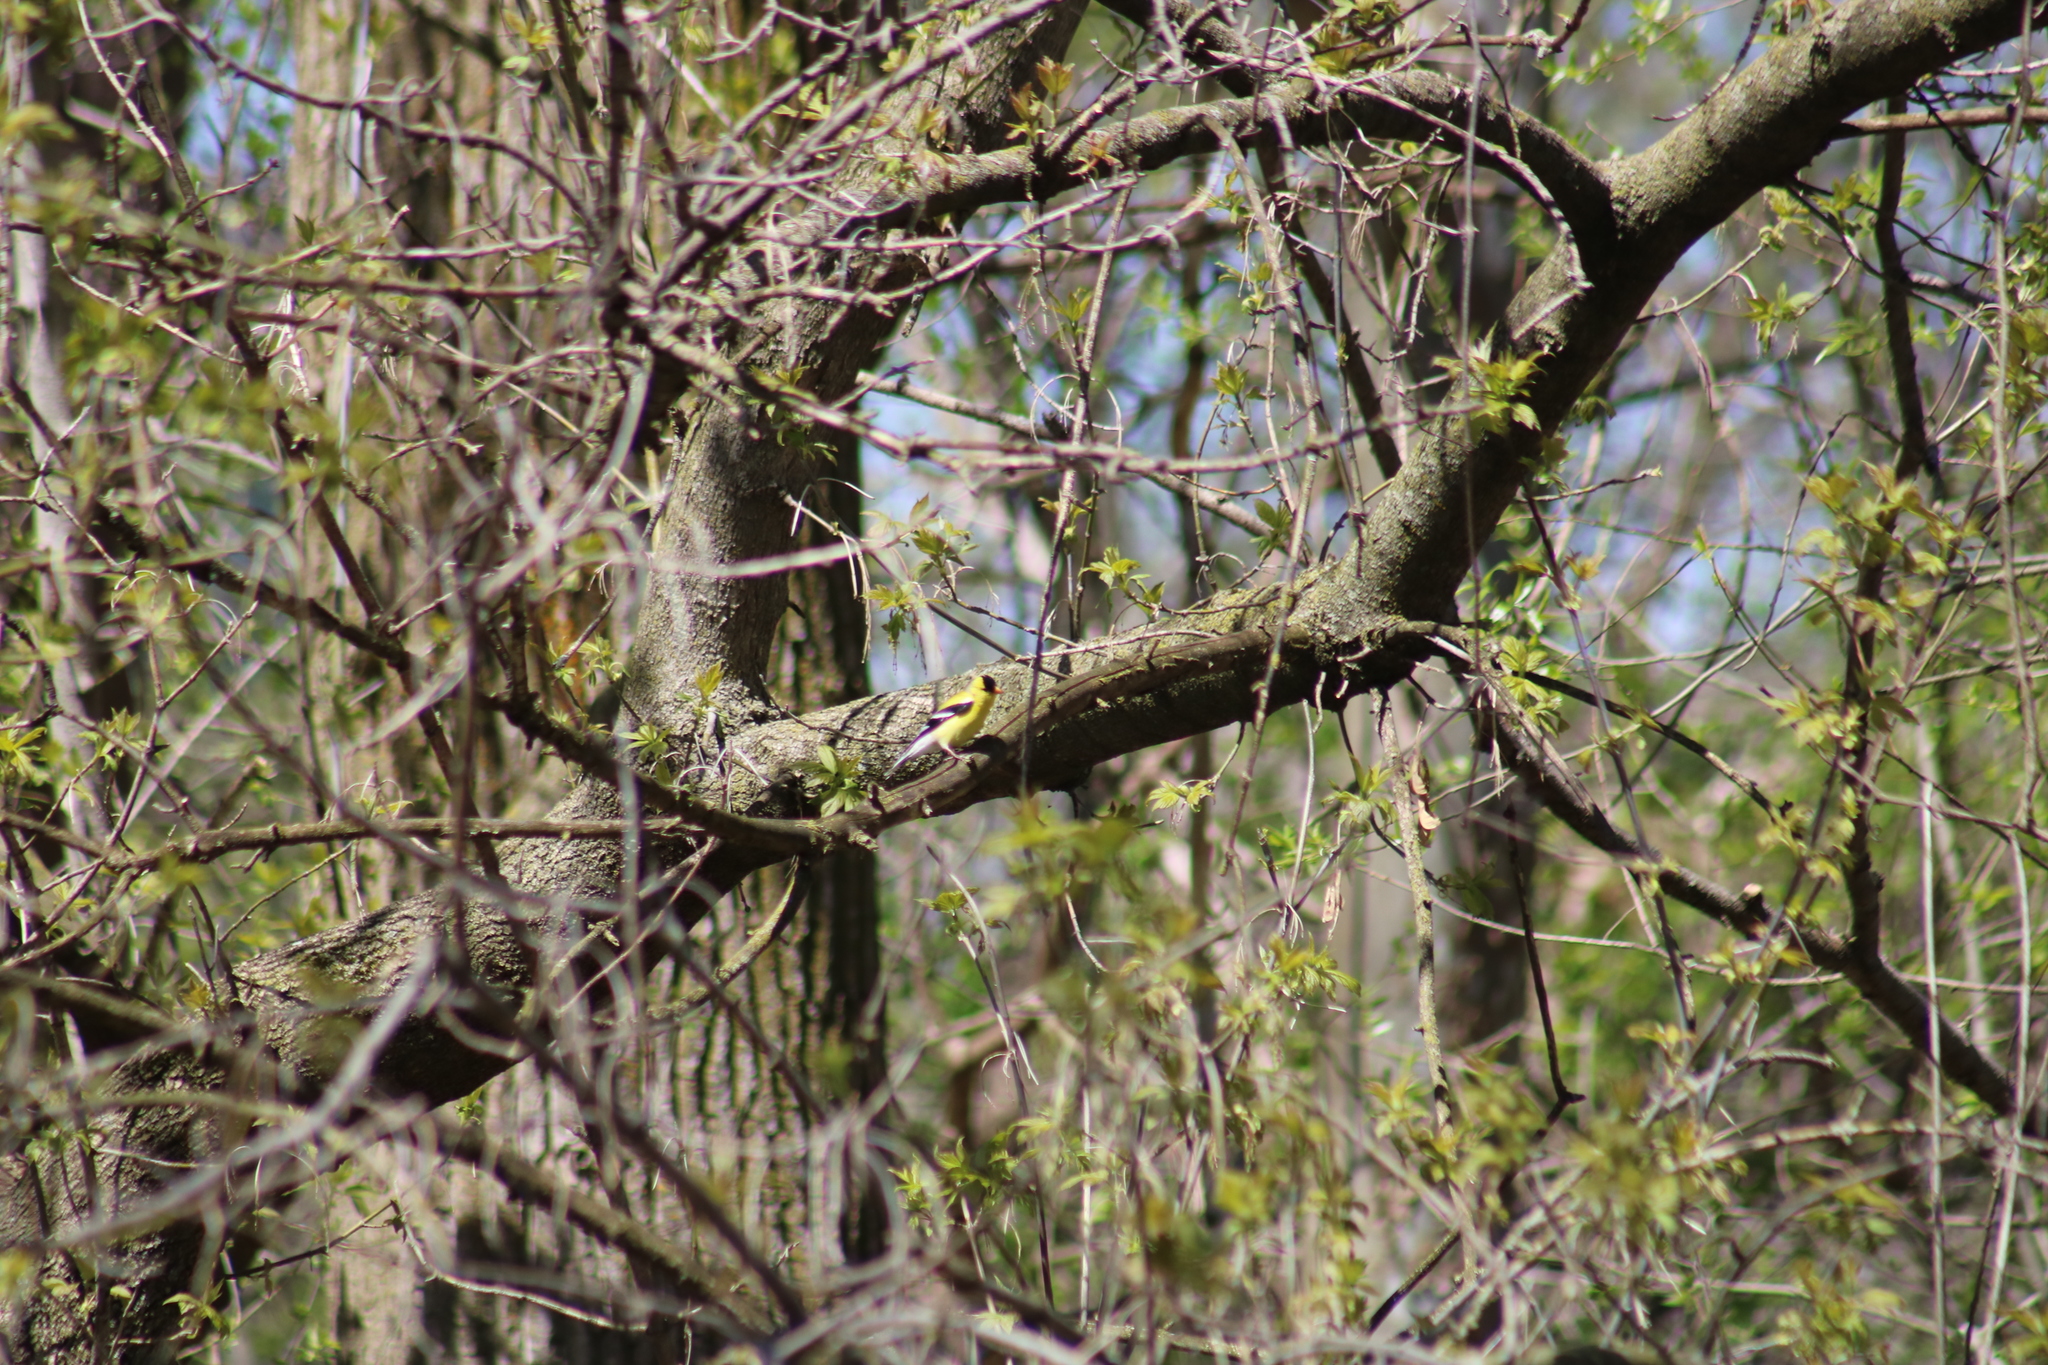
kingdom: Animalia
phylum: Chordata
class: Aves
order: Passeriformes
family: Fringillidae
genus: Spinus
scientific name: Spinus tristis
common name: American goldfinch
